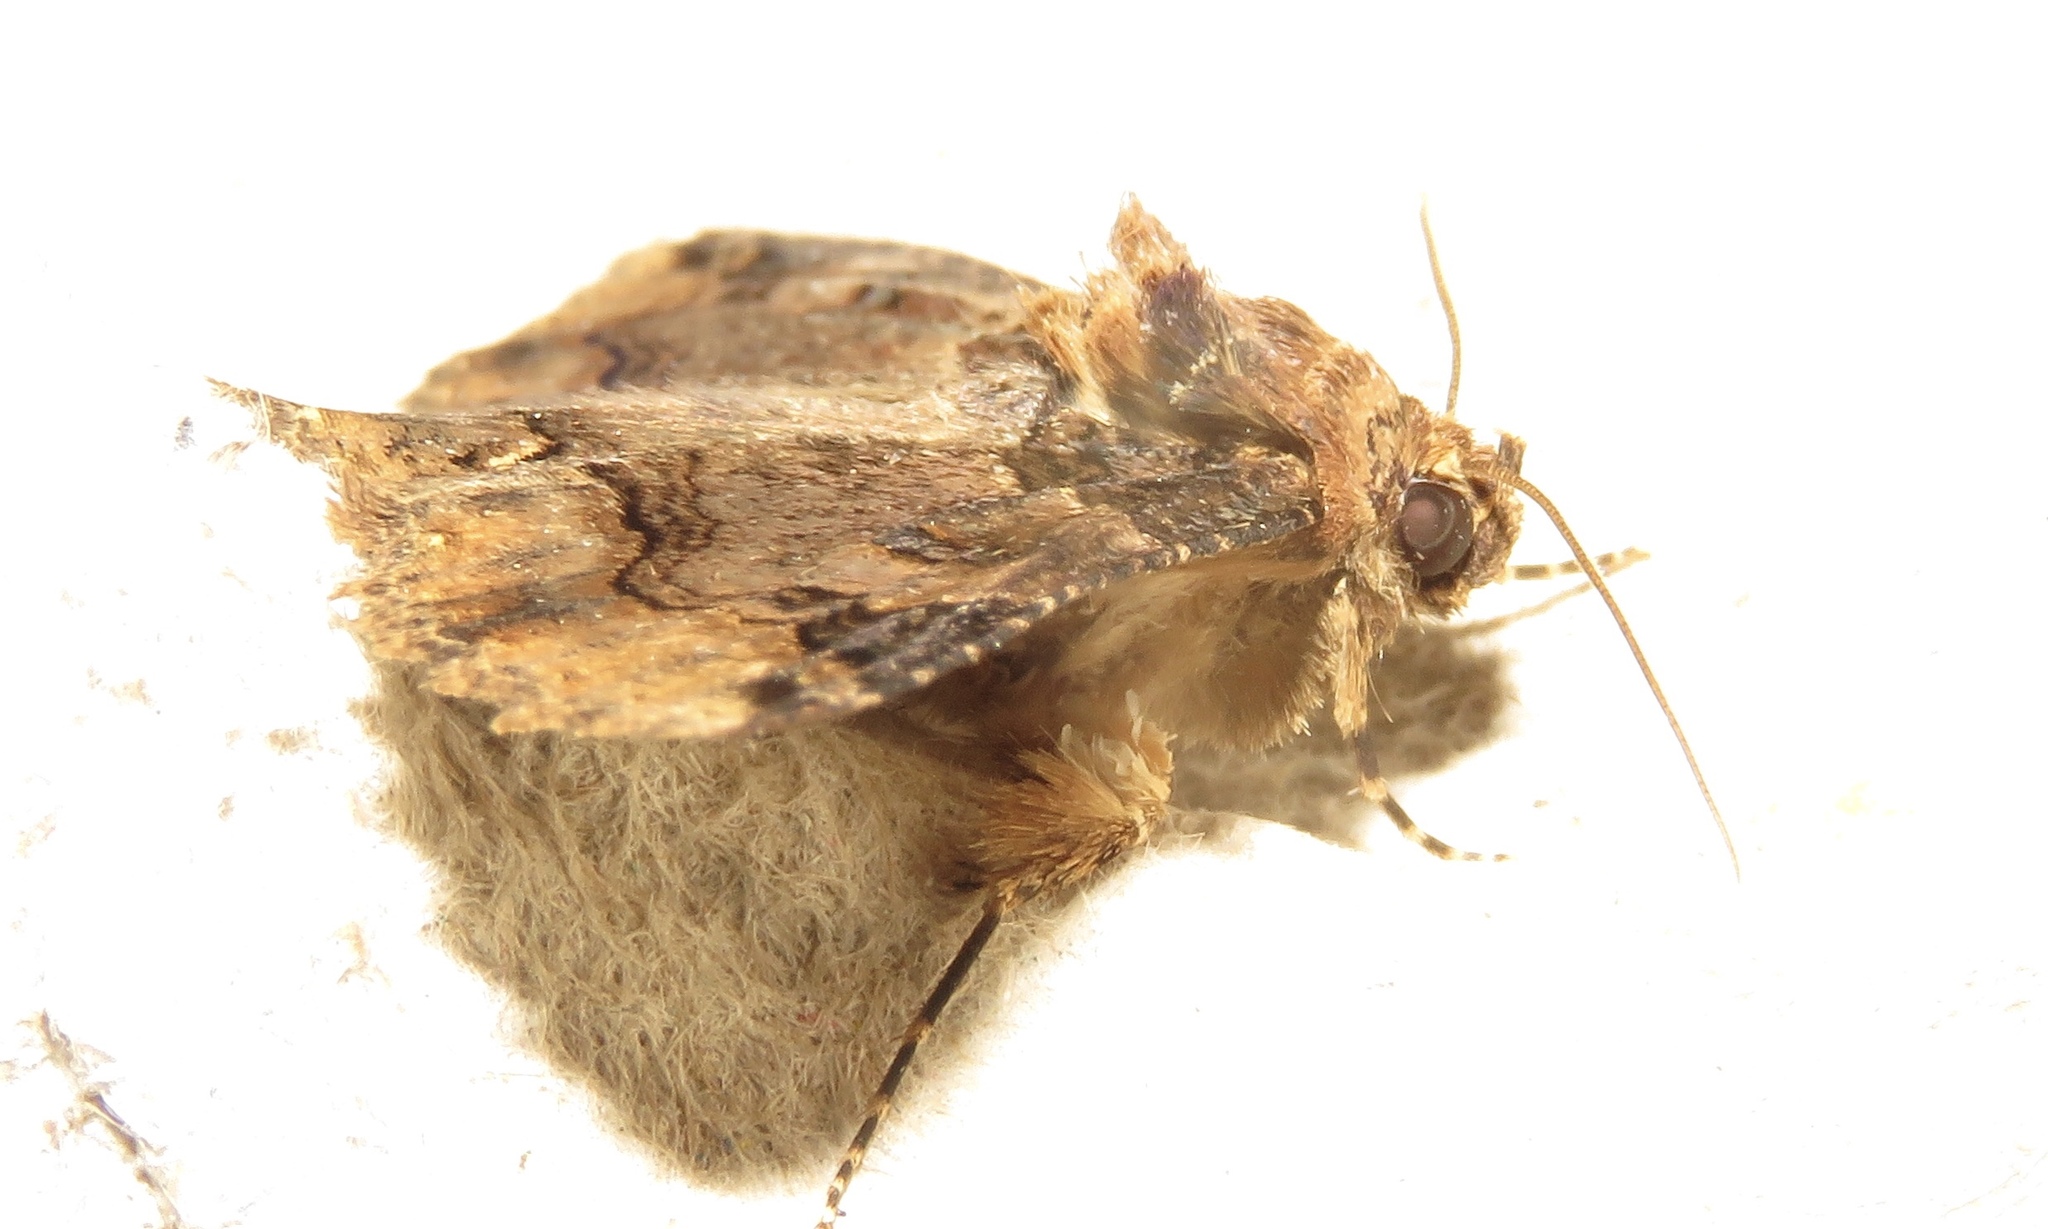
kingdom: Animalia
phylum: Arthropoda
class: Insecta
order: Lepidoptera
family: Erebidae
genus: Zale
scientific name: Zale minerea
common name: Colorful zale moth
